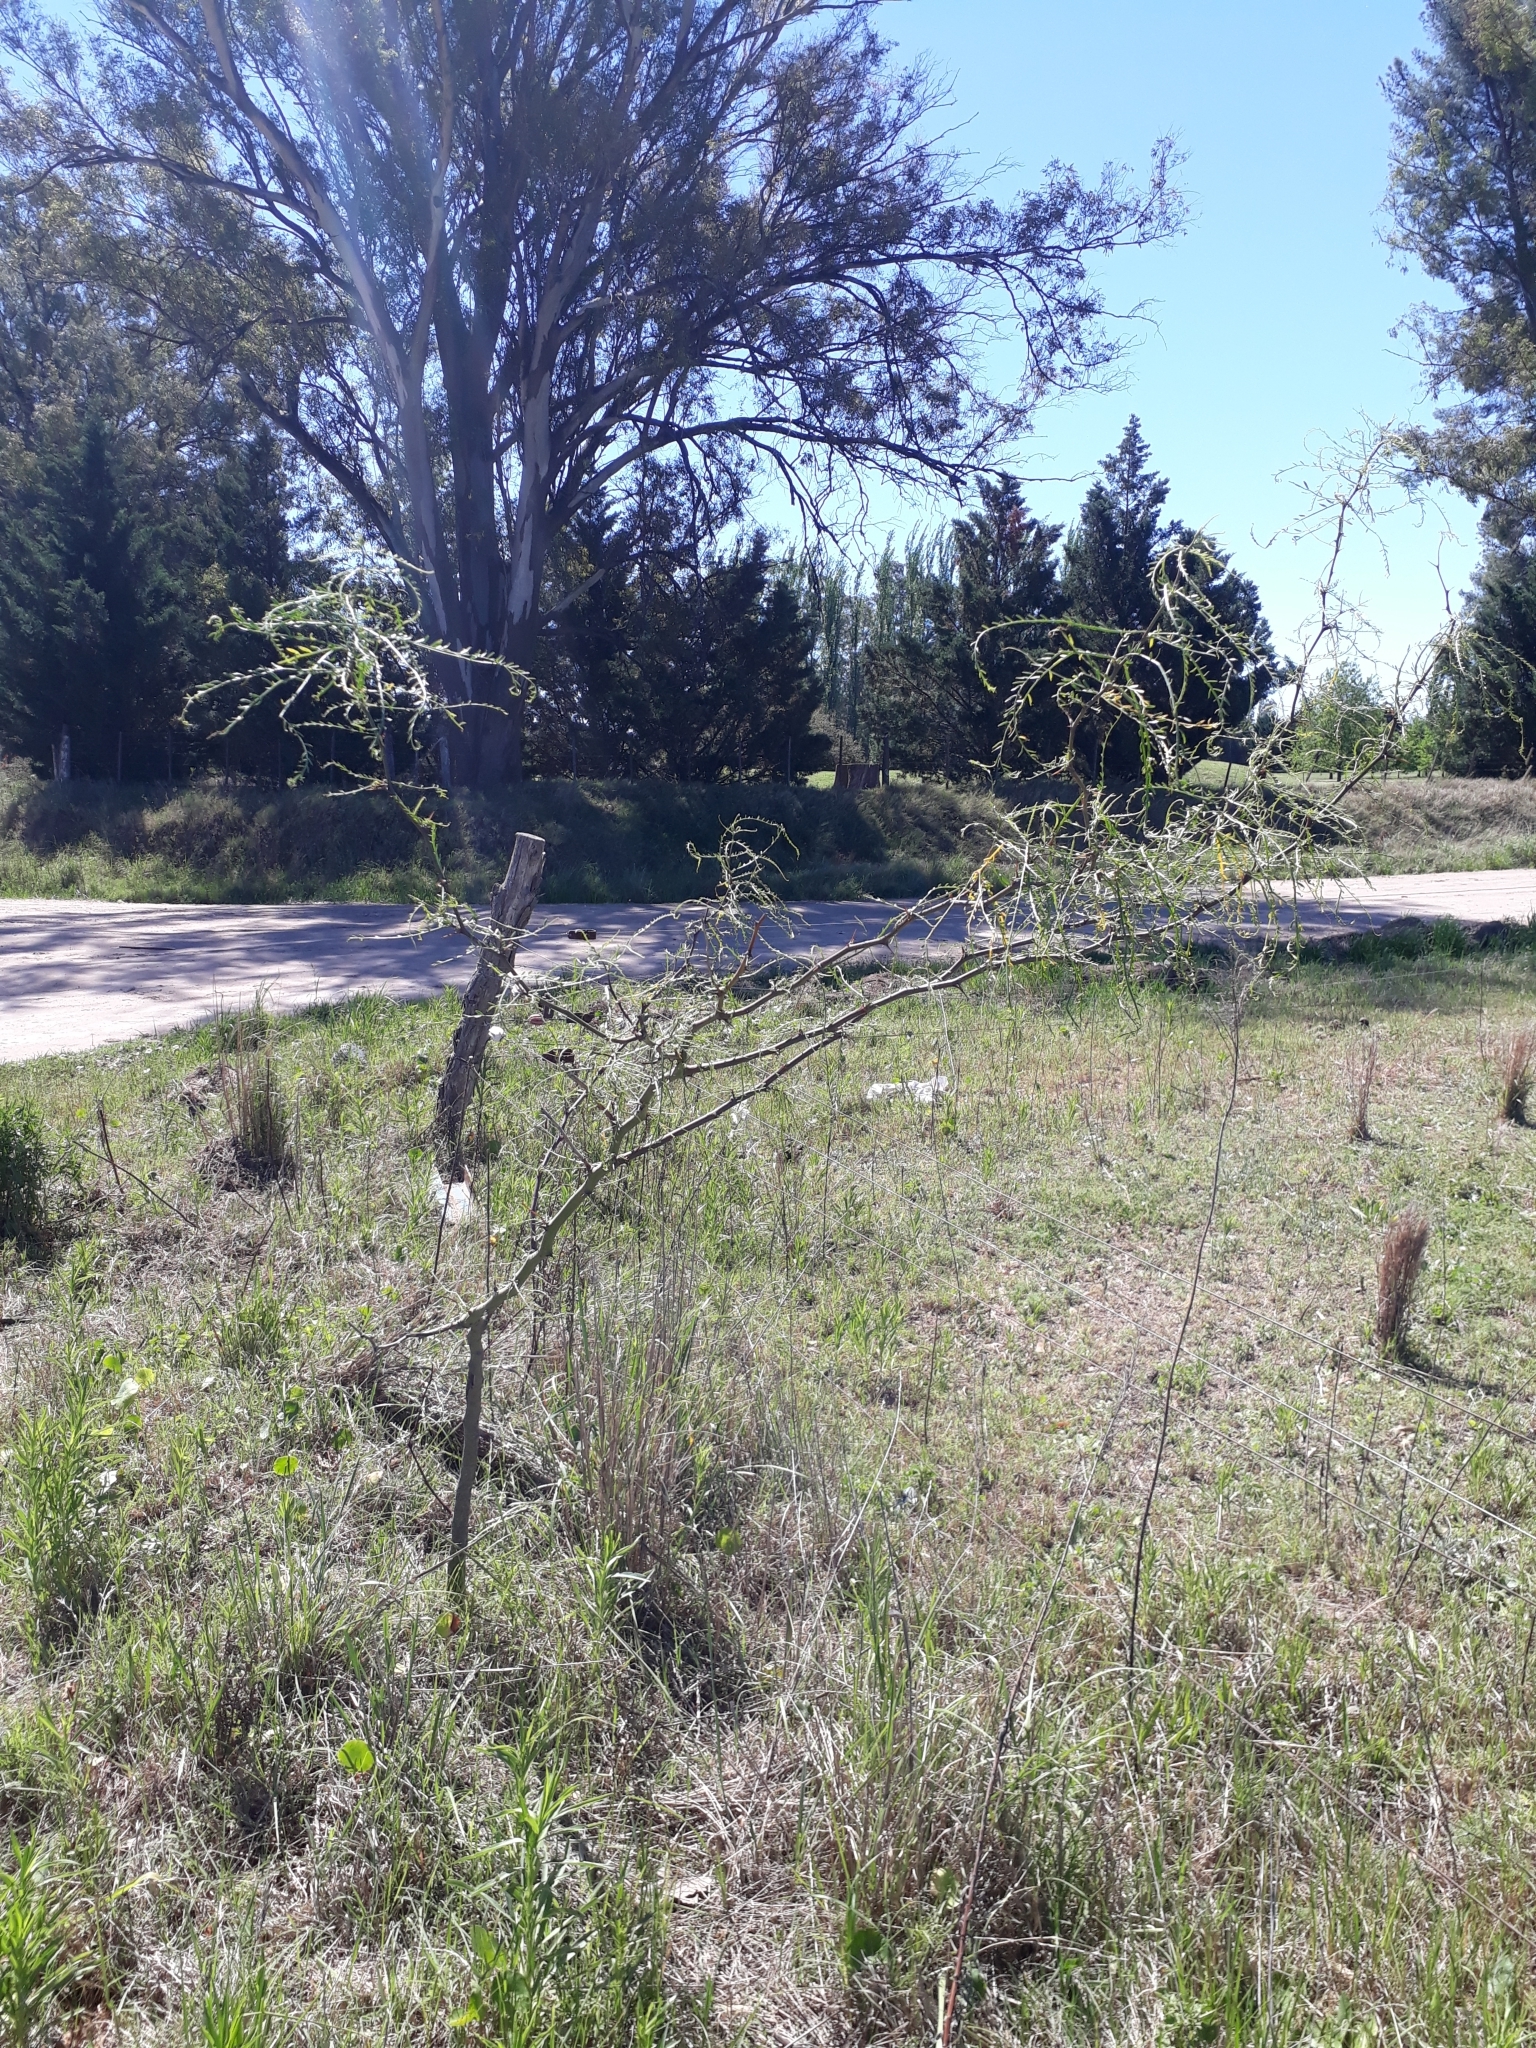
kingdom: Plantae
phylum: Tracheophyta
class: Magnoliopsida
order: Fabales
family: Fabaceae
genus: Parkinsonia
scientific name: Parkinsonia aculeata
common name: Jerusalem thorn
